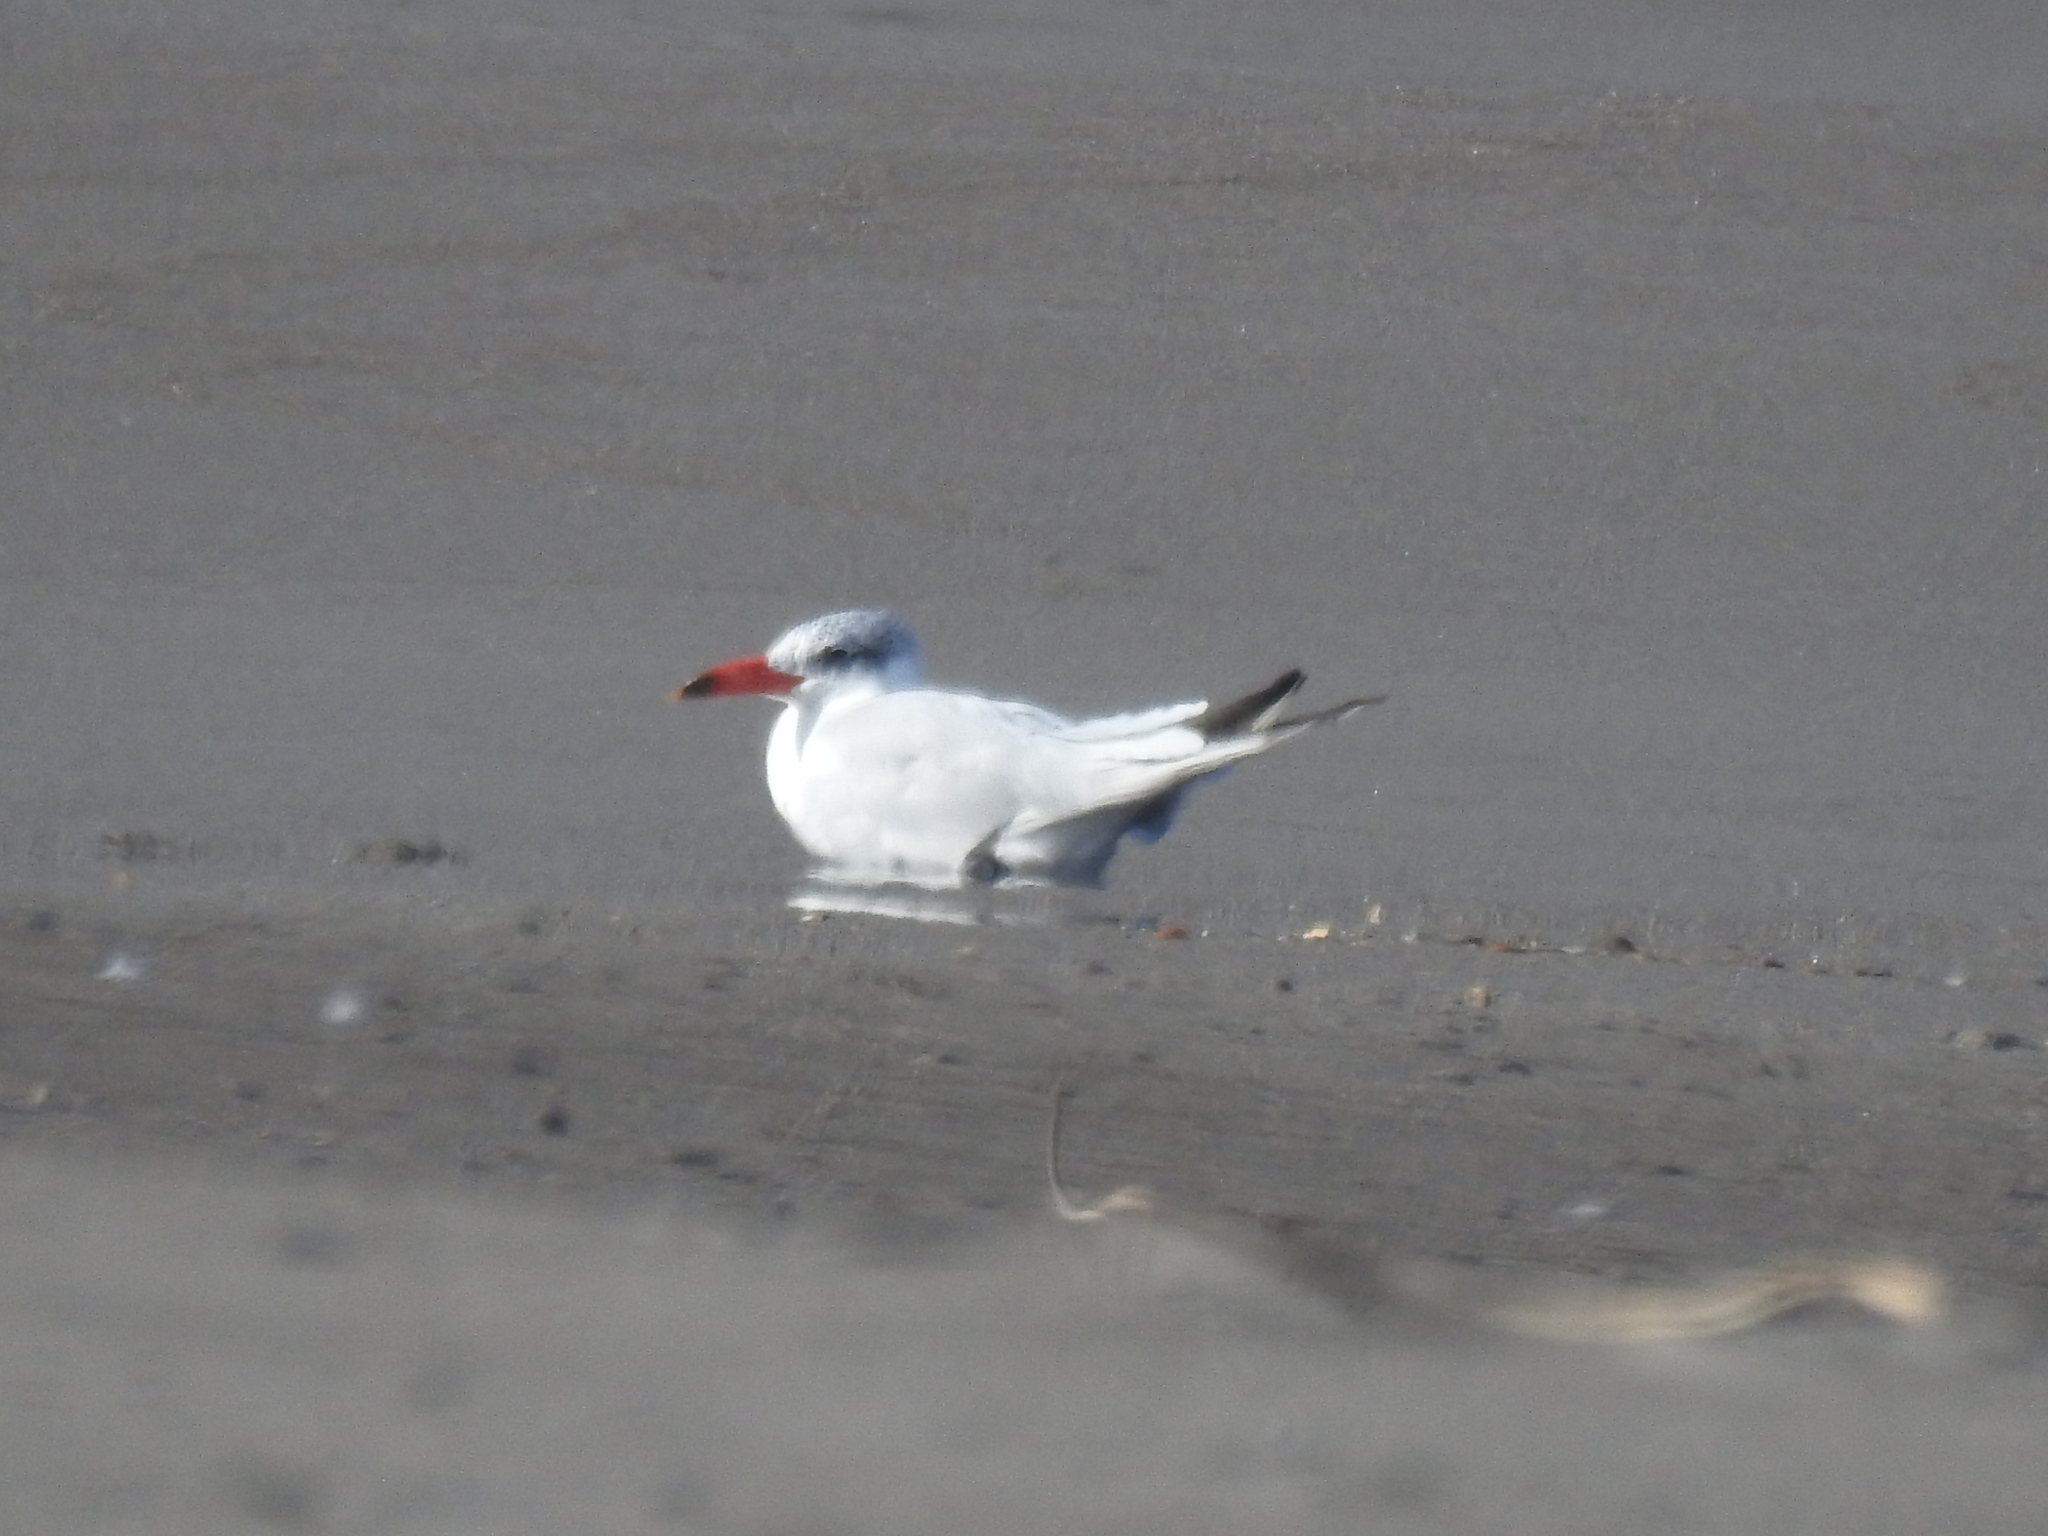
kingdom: Animalia
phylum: Chordata
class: Aves
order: Charadriiformes
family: Laridae
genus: Hydroprogne
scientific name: Hydroprogne caspia
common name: Caspian tern
